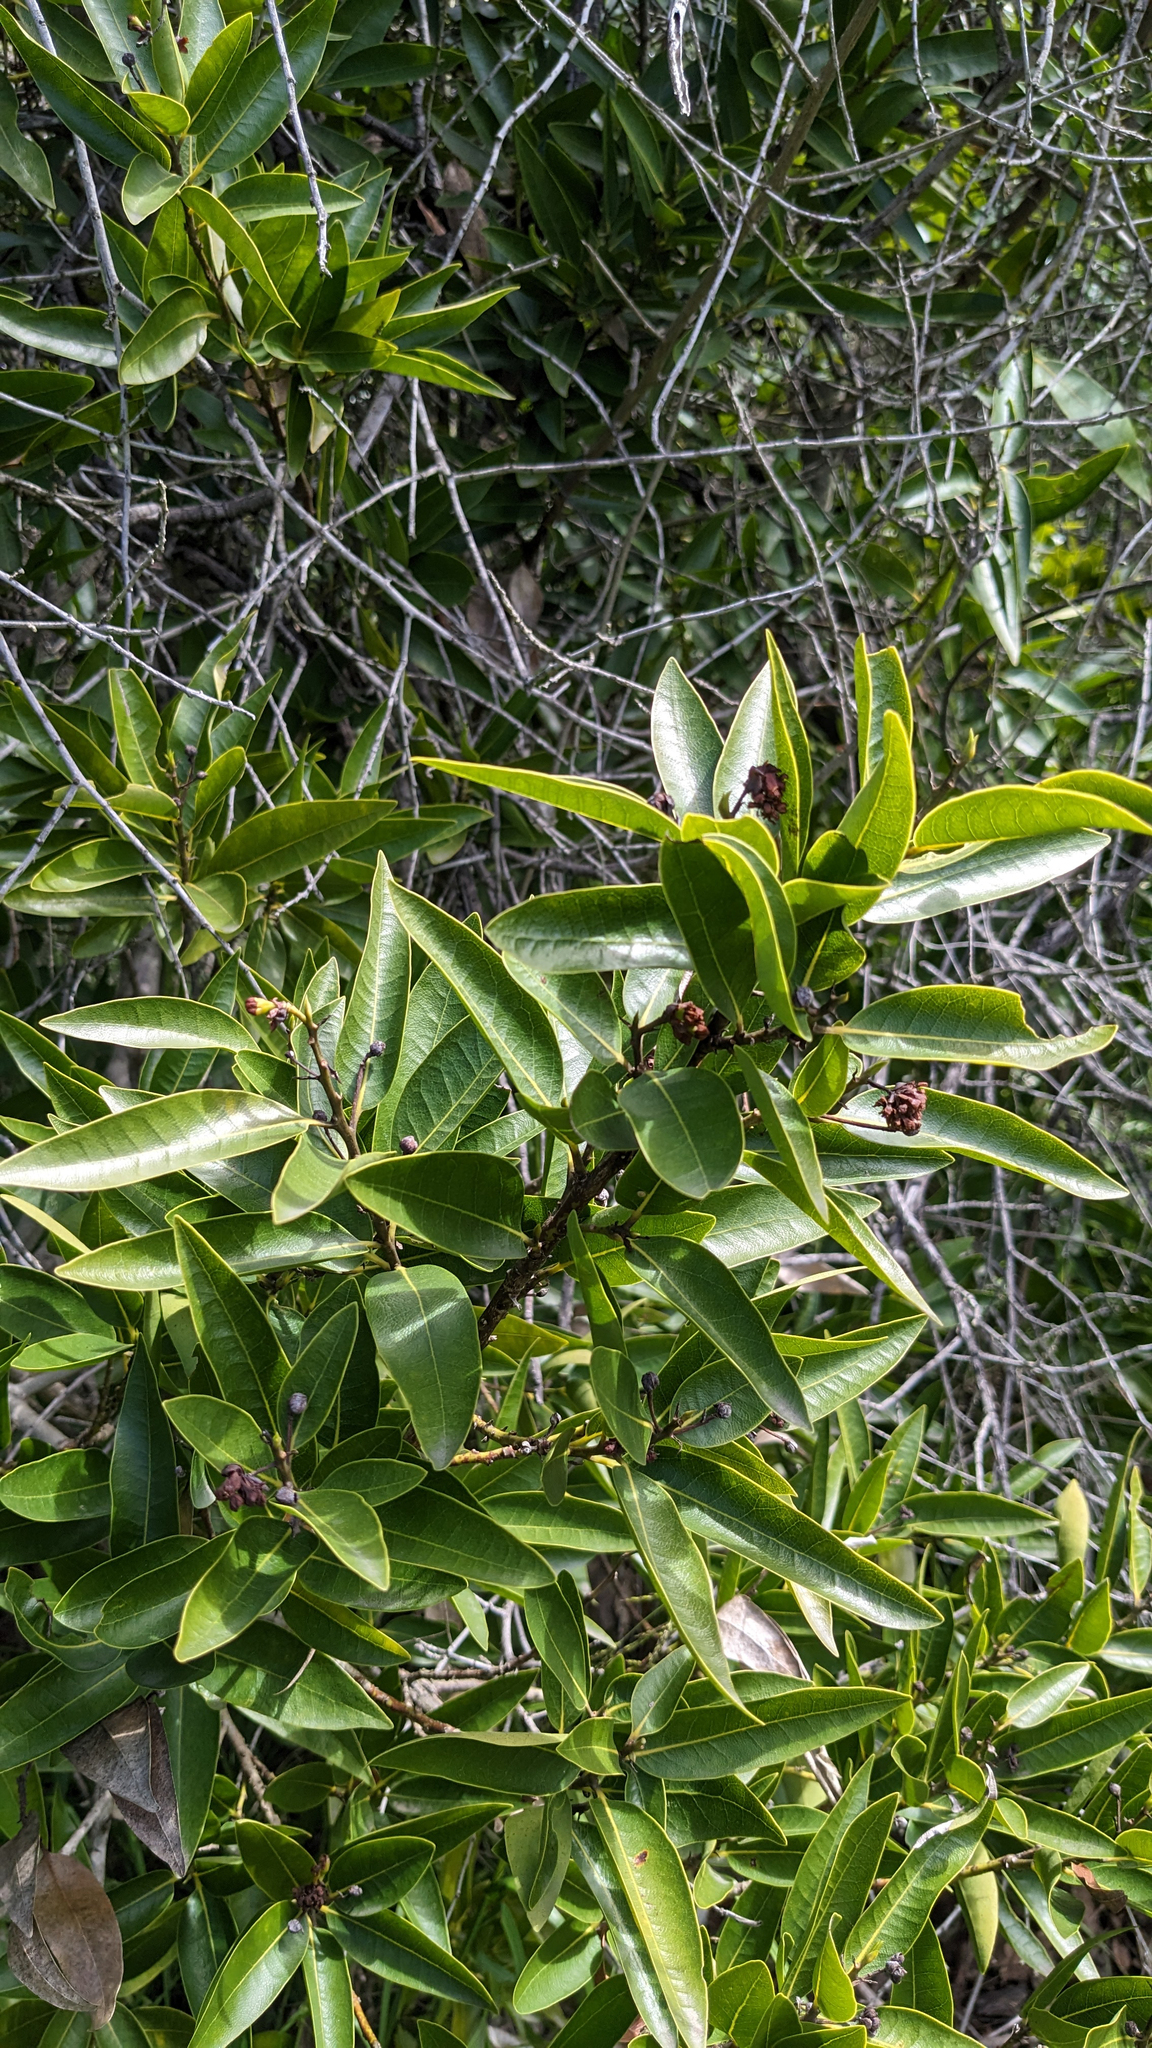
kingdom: Plantae
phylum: Tracheophyta
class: Magnoliopsida
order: Laurales
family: Lauraceae
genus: Umbellularia
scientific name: Umbellularia californica
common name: California bay
